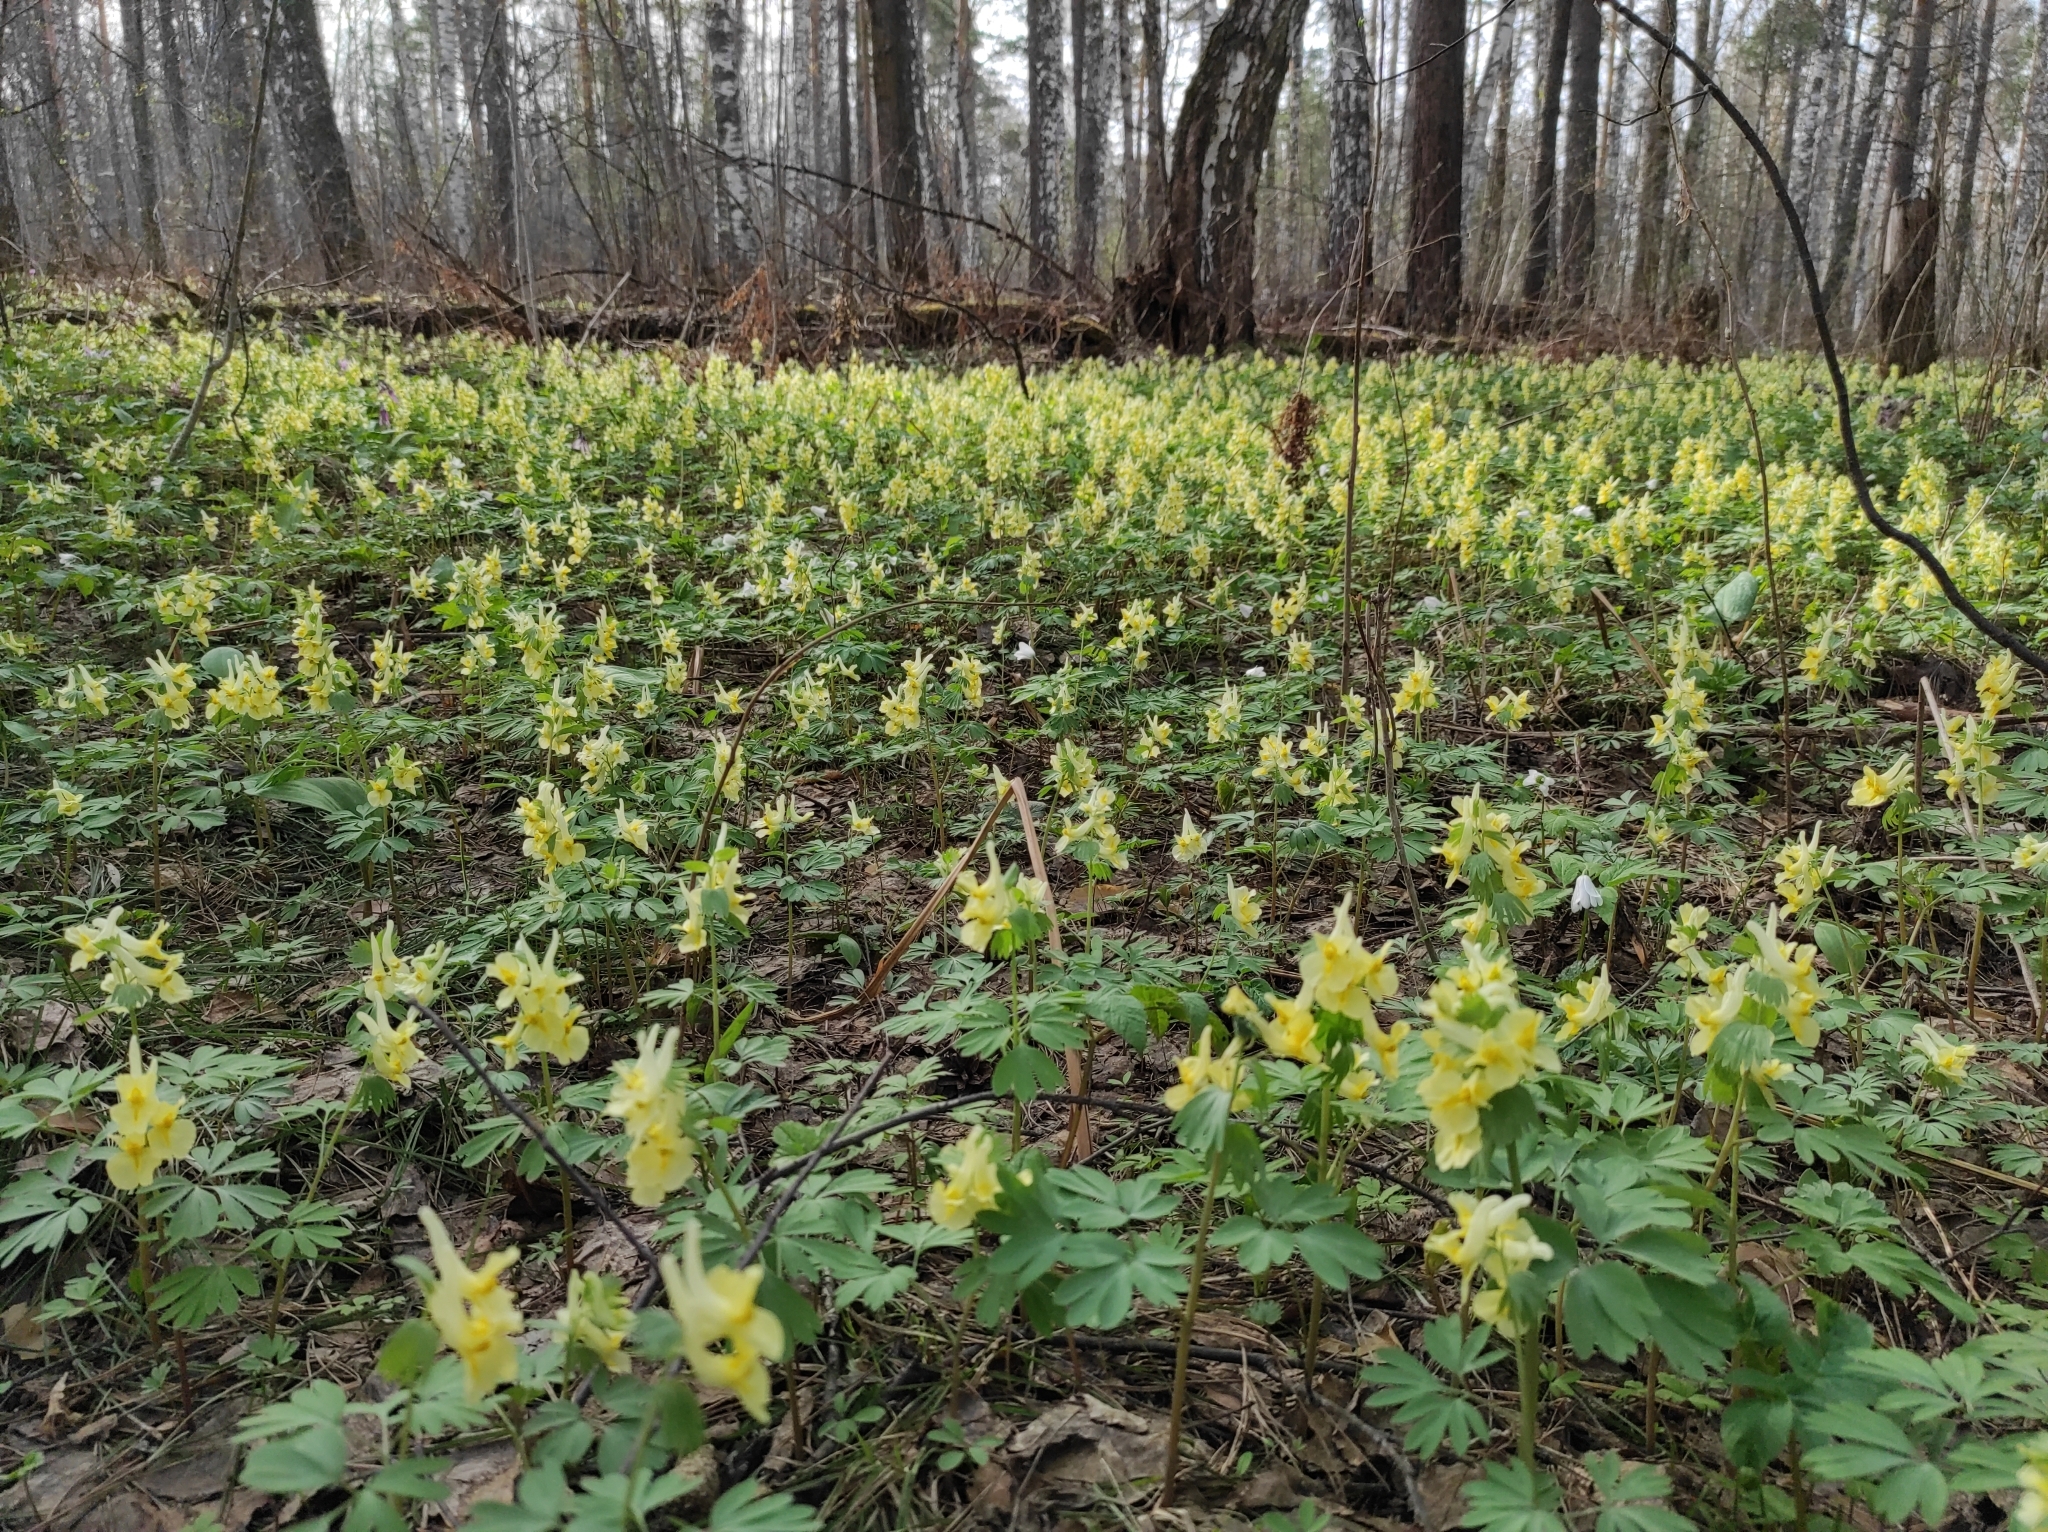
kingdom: Plantae
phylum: Tracheophyta
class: Magnoliopsida
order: Ranunculales
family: Papaveraceae
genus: Corydalis
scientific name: Corydalis bracteata
